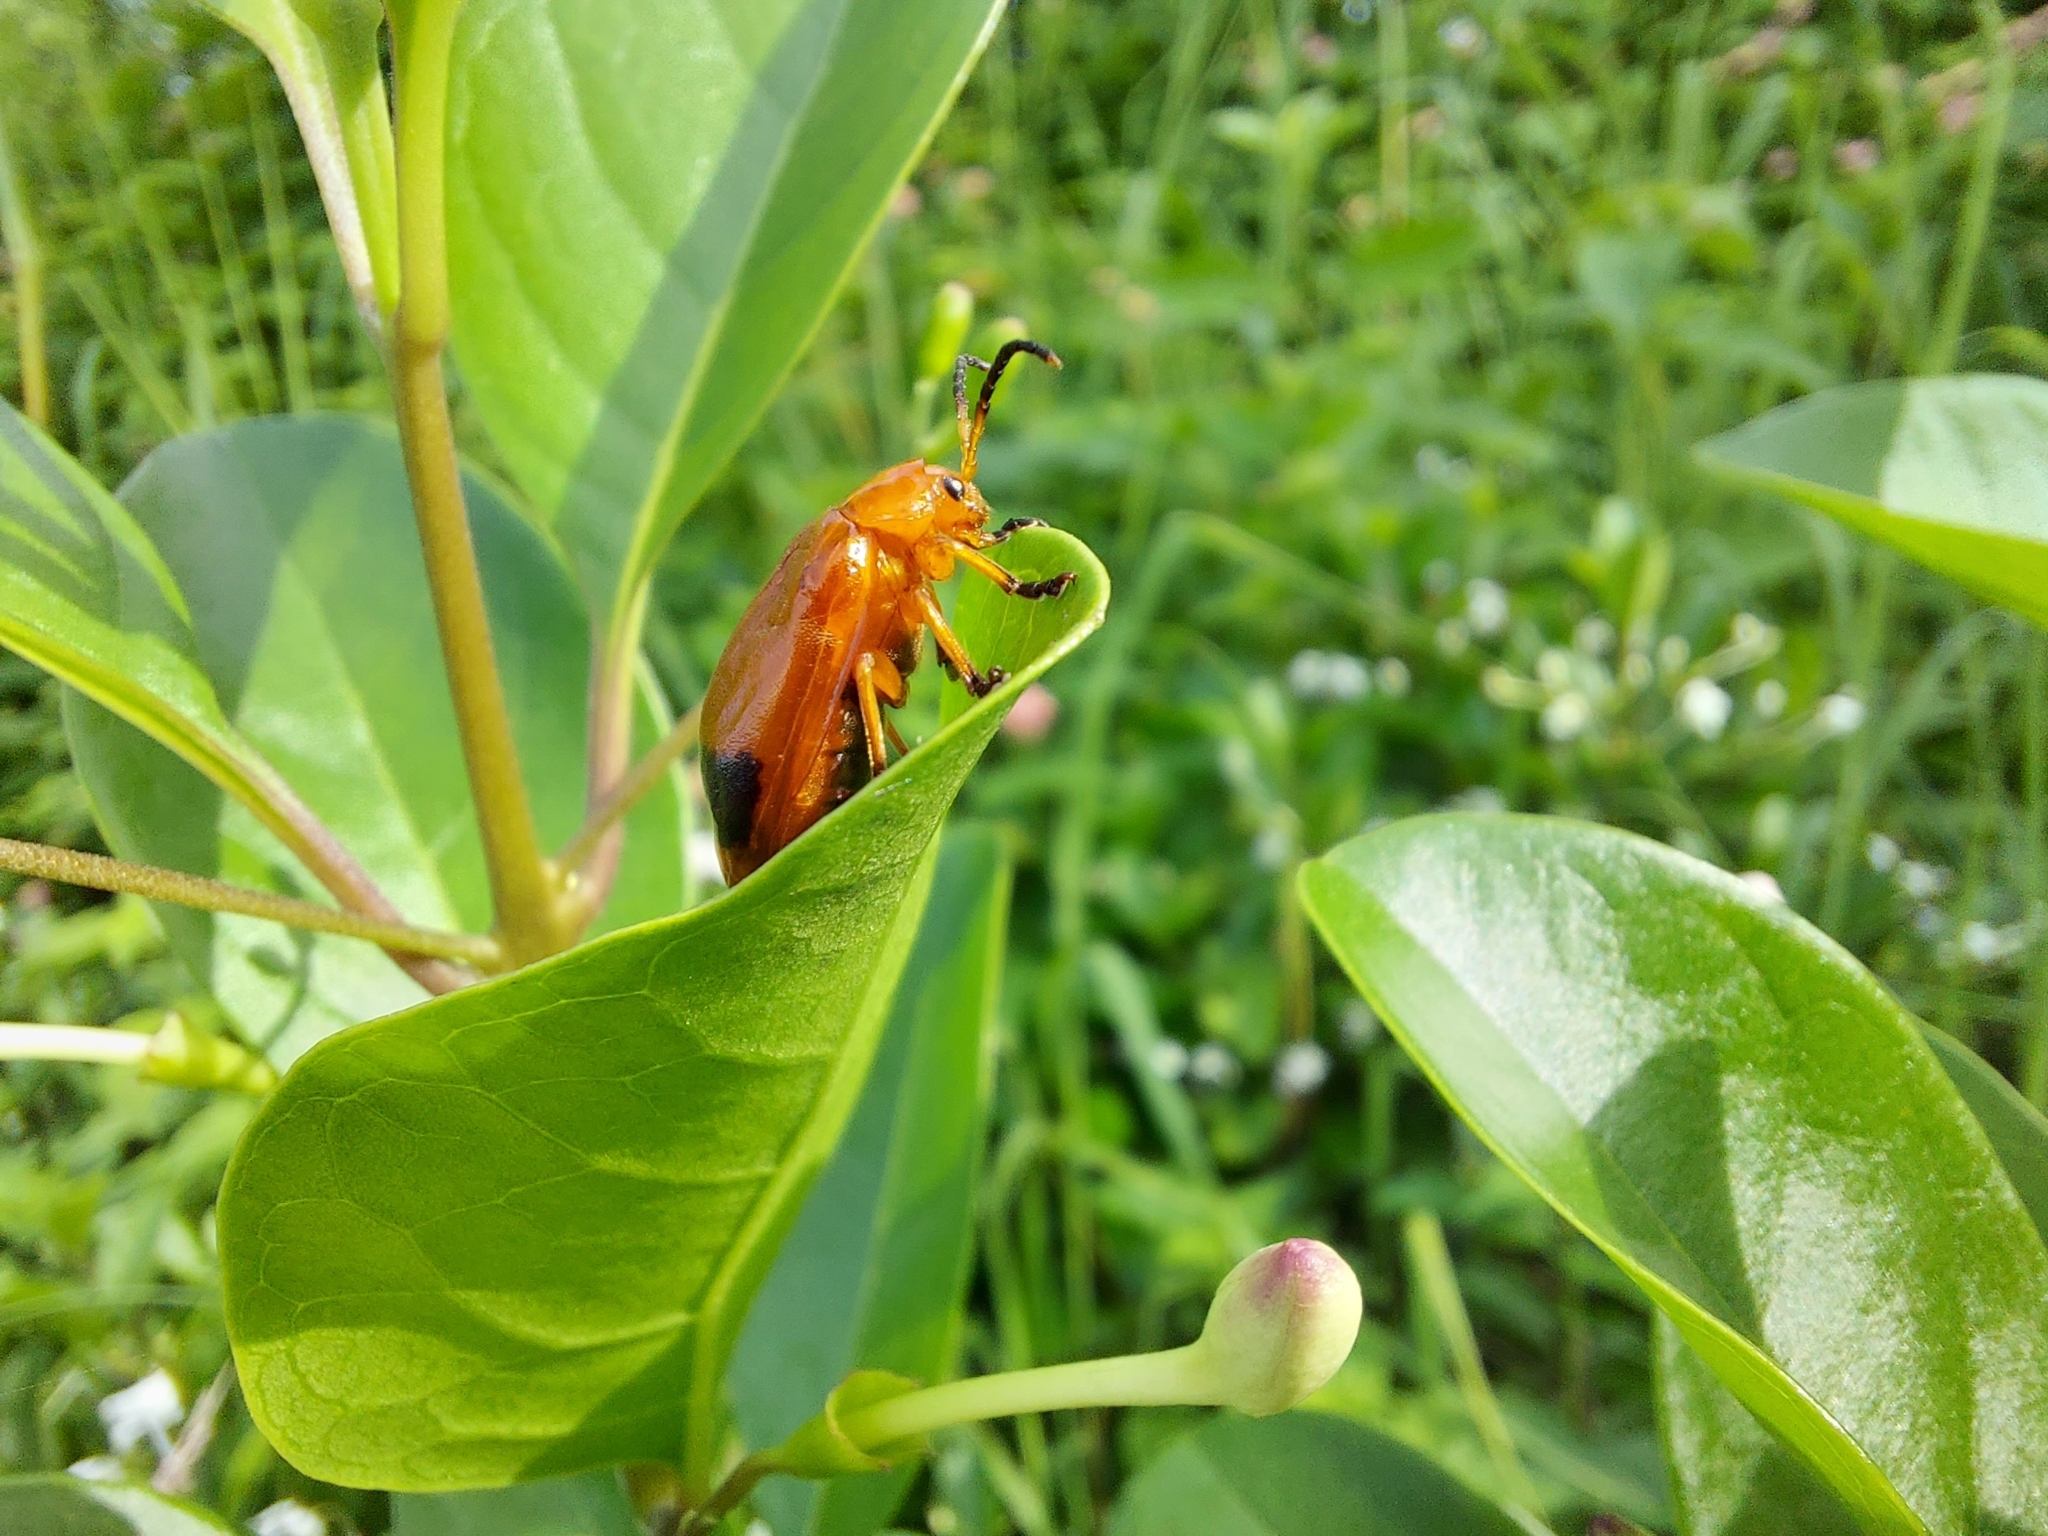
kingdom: Animalia
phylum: Arthropoda
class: Insecta
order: Coleoptera
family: Chrysomelidae
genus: Oides
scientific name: Oides palleata
